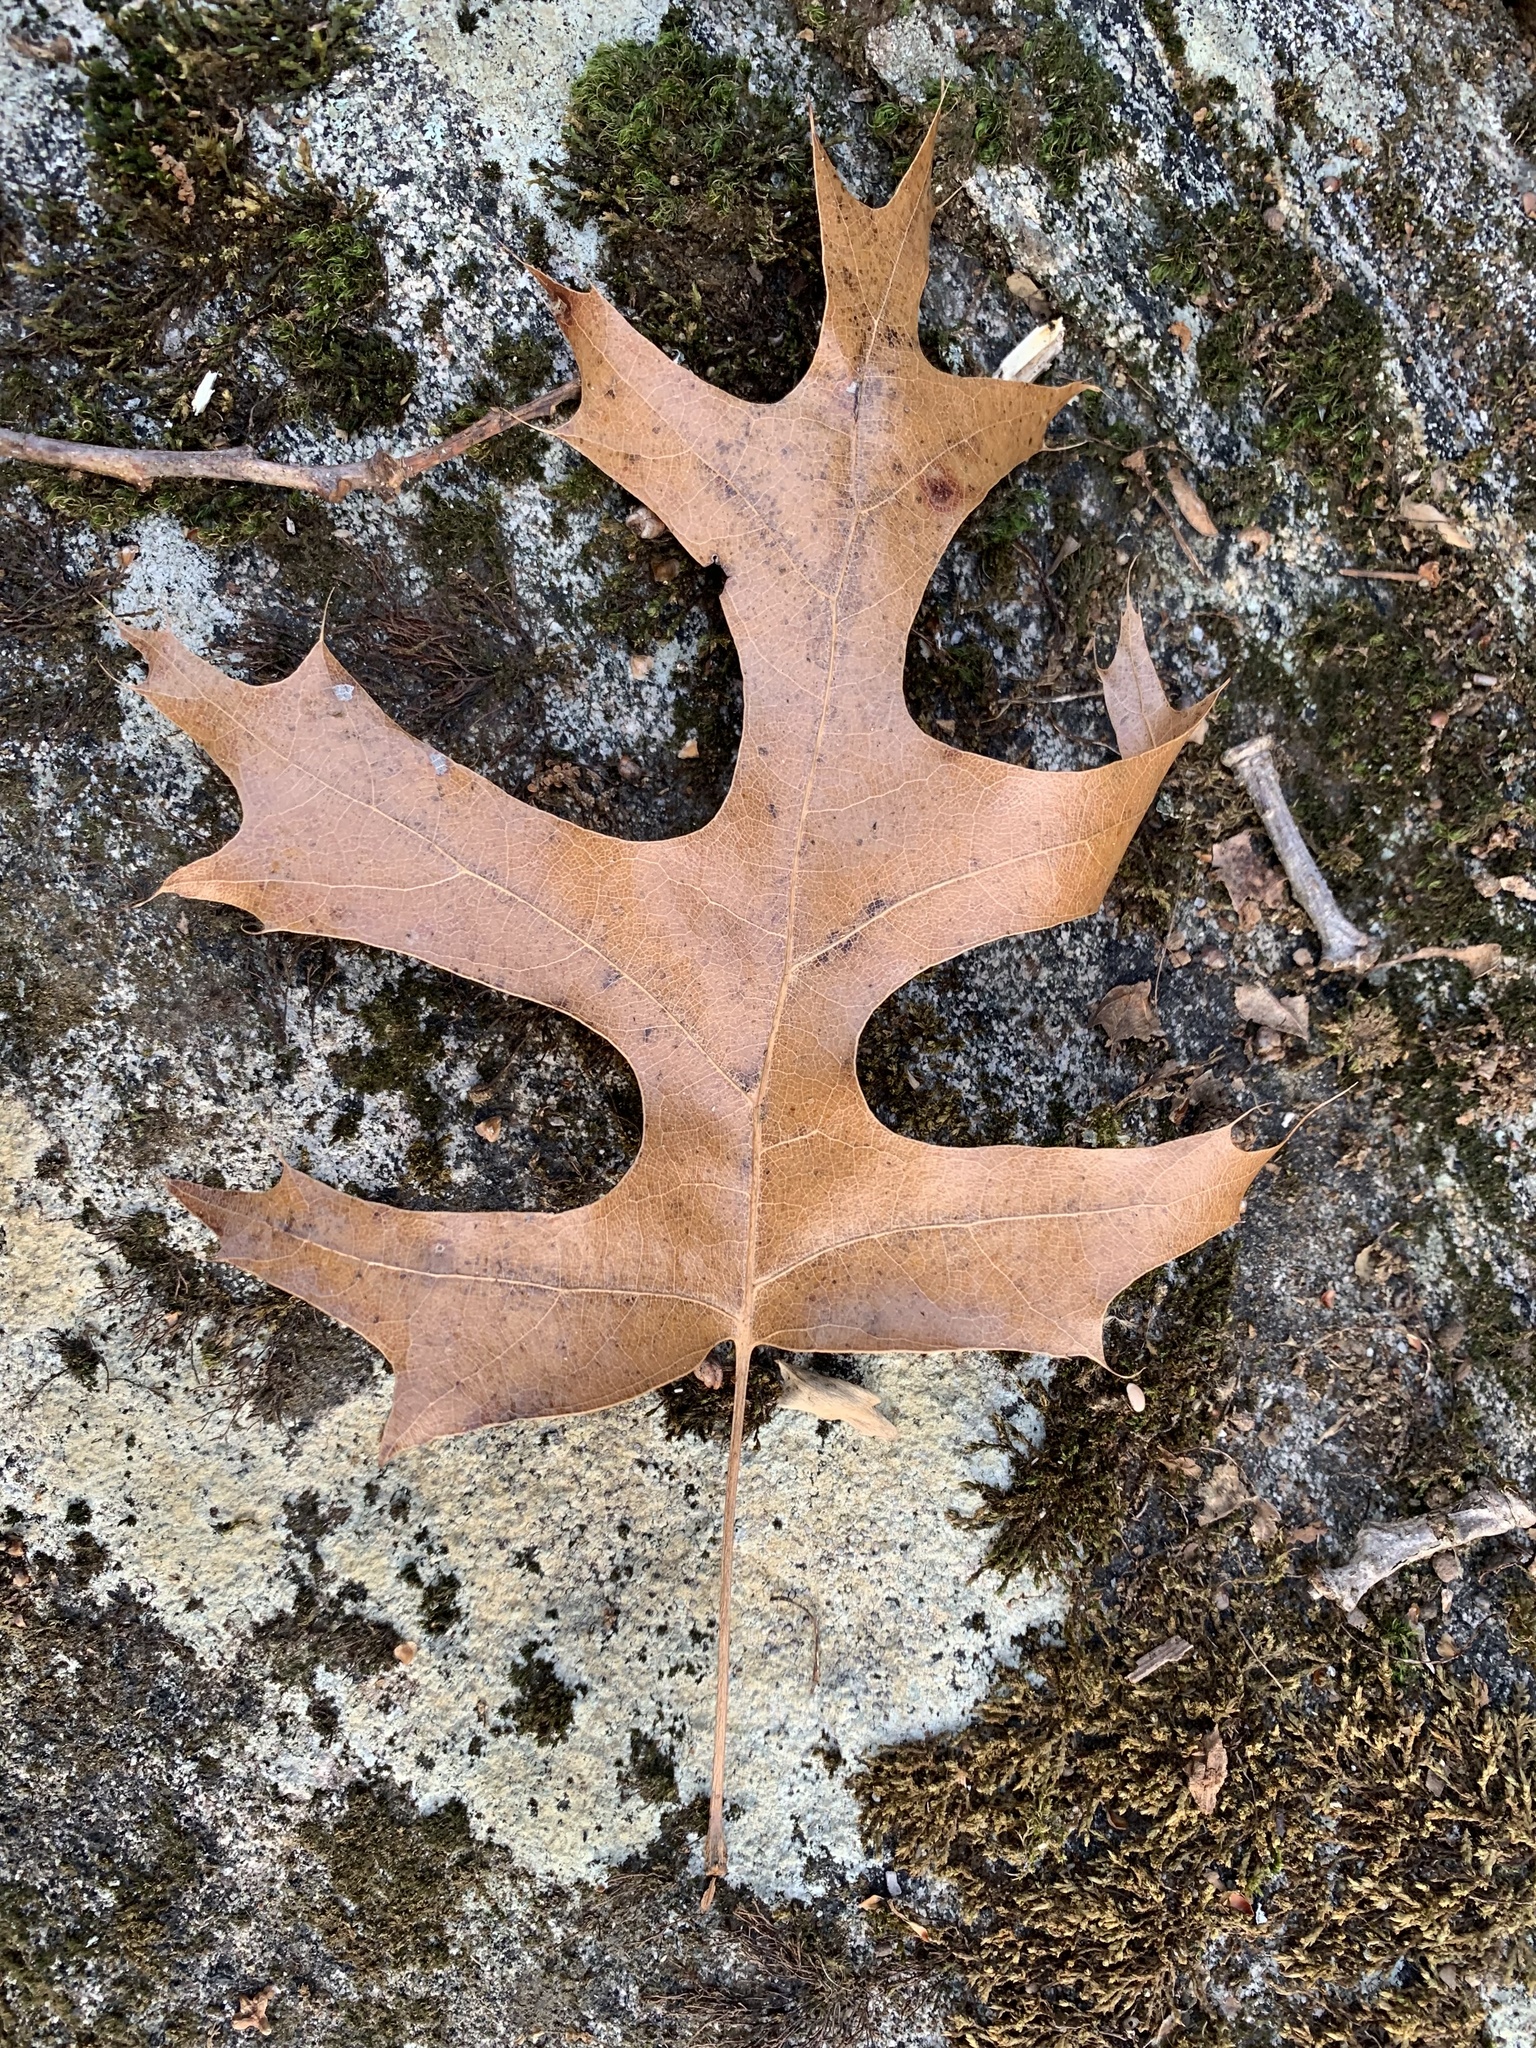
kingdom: Plantae
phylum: Tracheophyta
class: Magnoliopsida
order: Fagales
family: Fagaceae
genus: Quercus
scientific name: Quercus coccinea
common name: Scarlet oak
